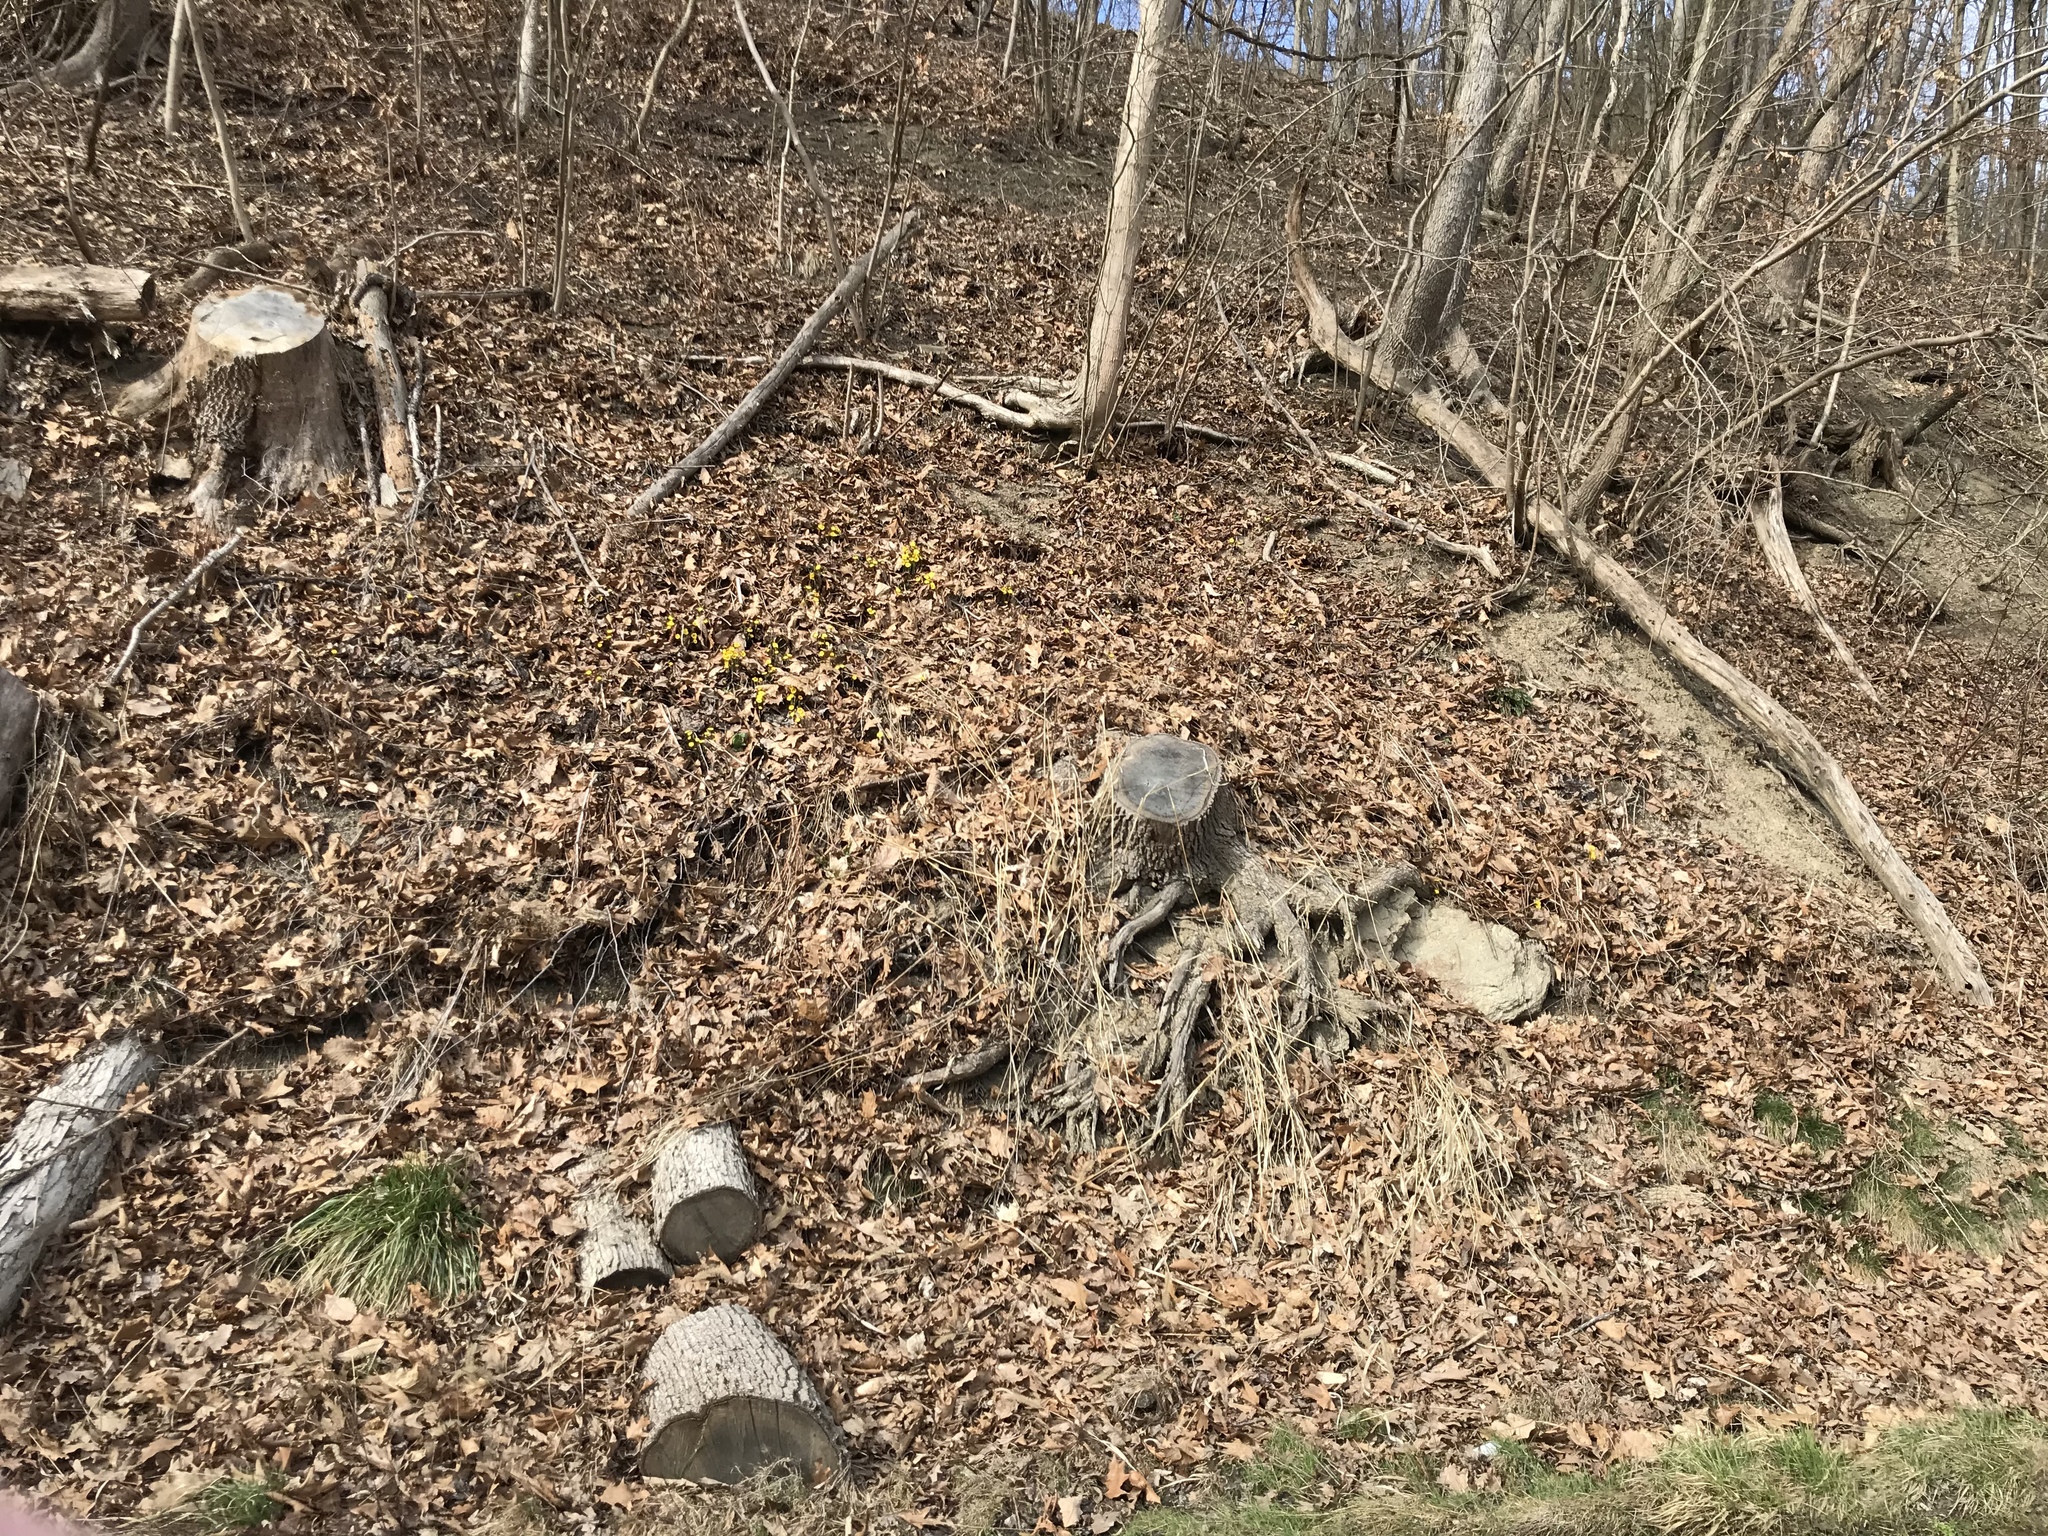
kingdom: Plantae
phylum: Tracheophyta
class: Magnoliopsida
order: Asterales
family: Asteraceae
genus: Tussilago
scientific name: Tussilago farfara
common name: Coltsfoot
